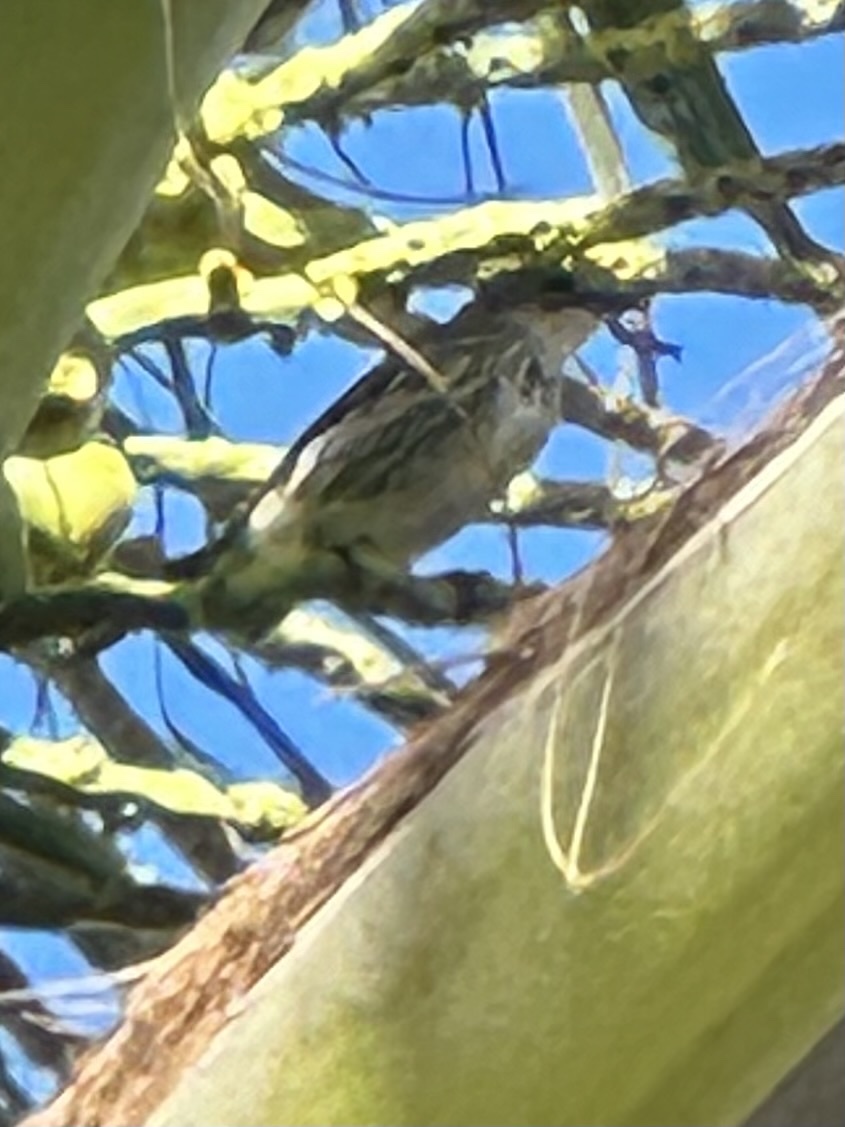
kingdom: Animalia
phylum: Chordata
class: Aves
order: Passeriformes
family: Parulidae
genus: Setophaga
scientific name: Setophaga coronata
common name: Myrtle warbler
